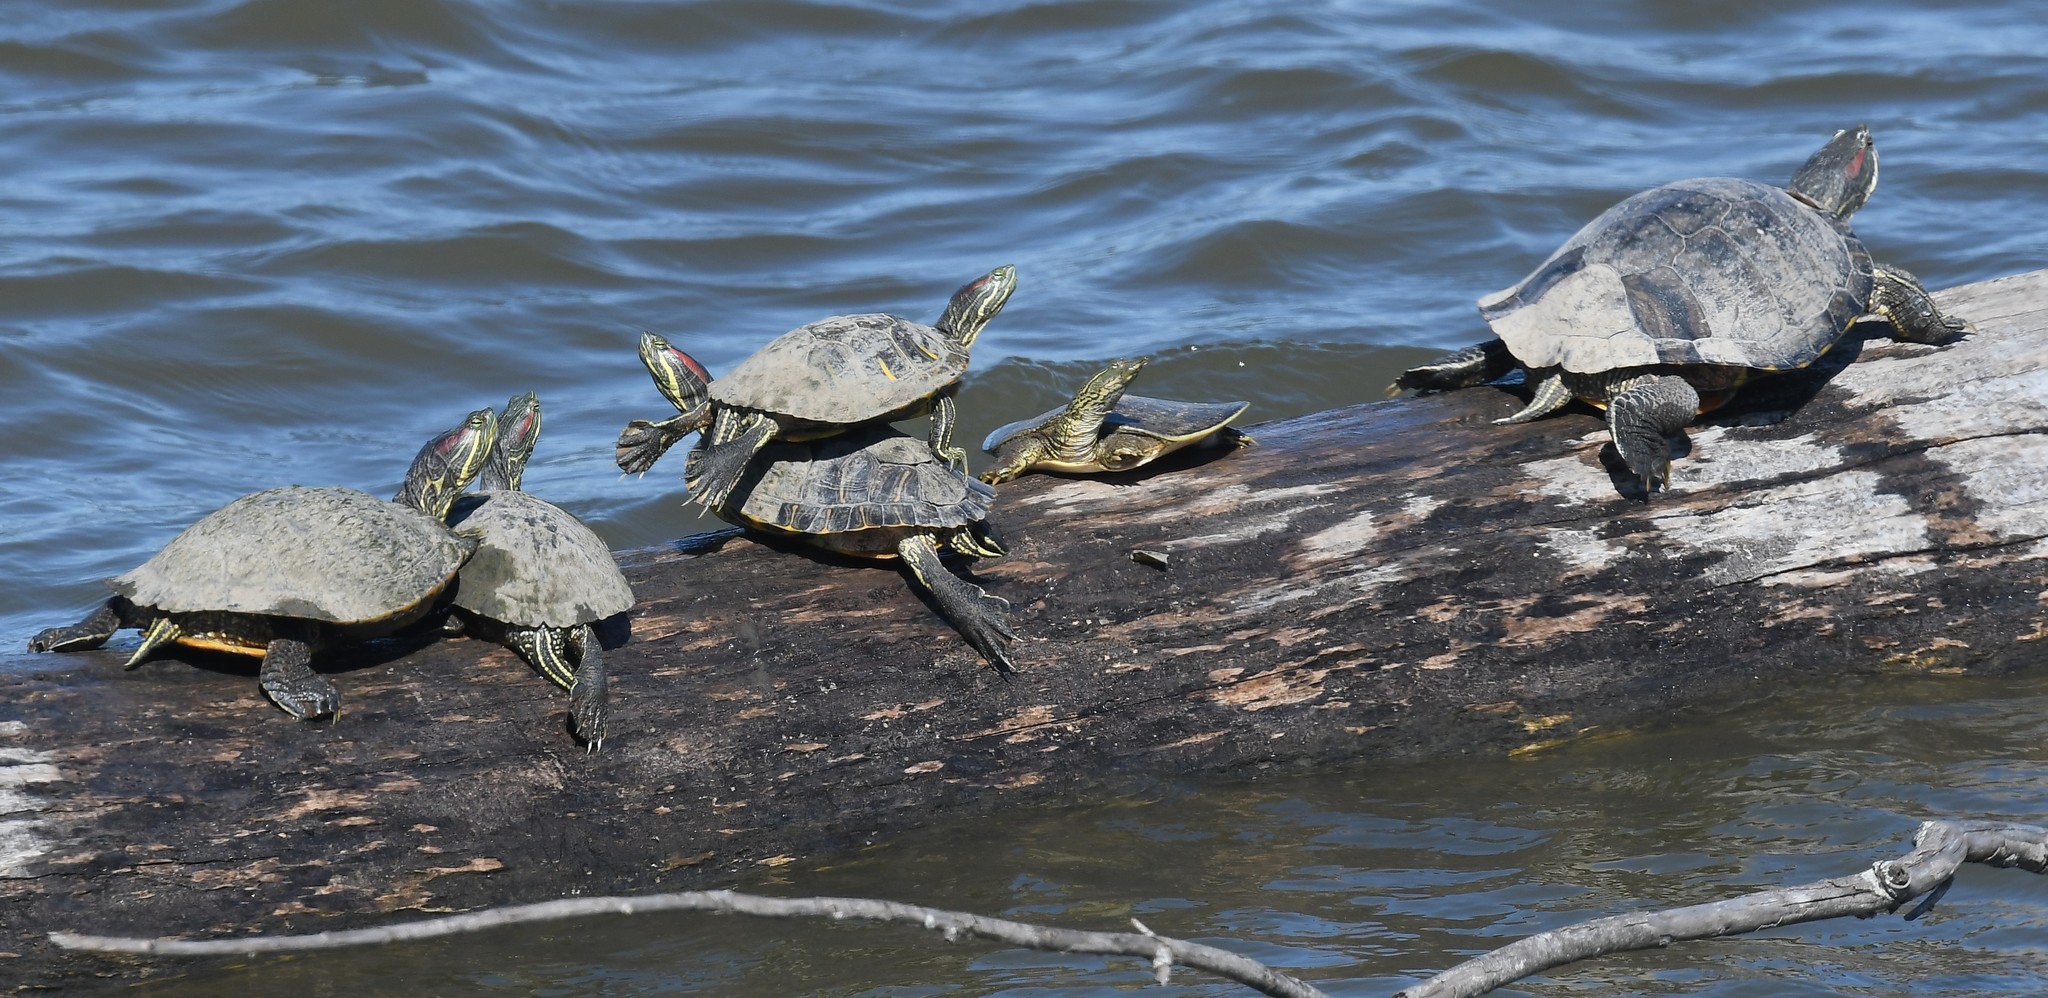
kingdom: Animalia
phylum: Chordata
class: Testudines
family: Emydidae
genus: Trachemys
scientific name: Trachemys scripta
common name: Slider
